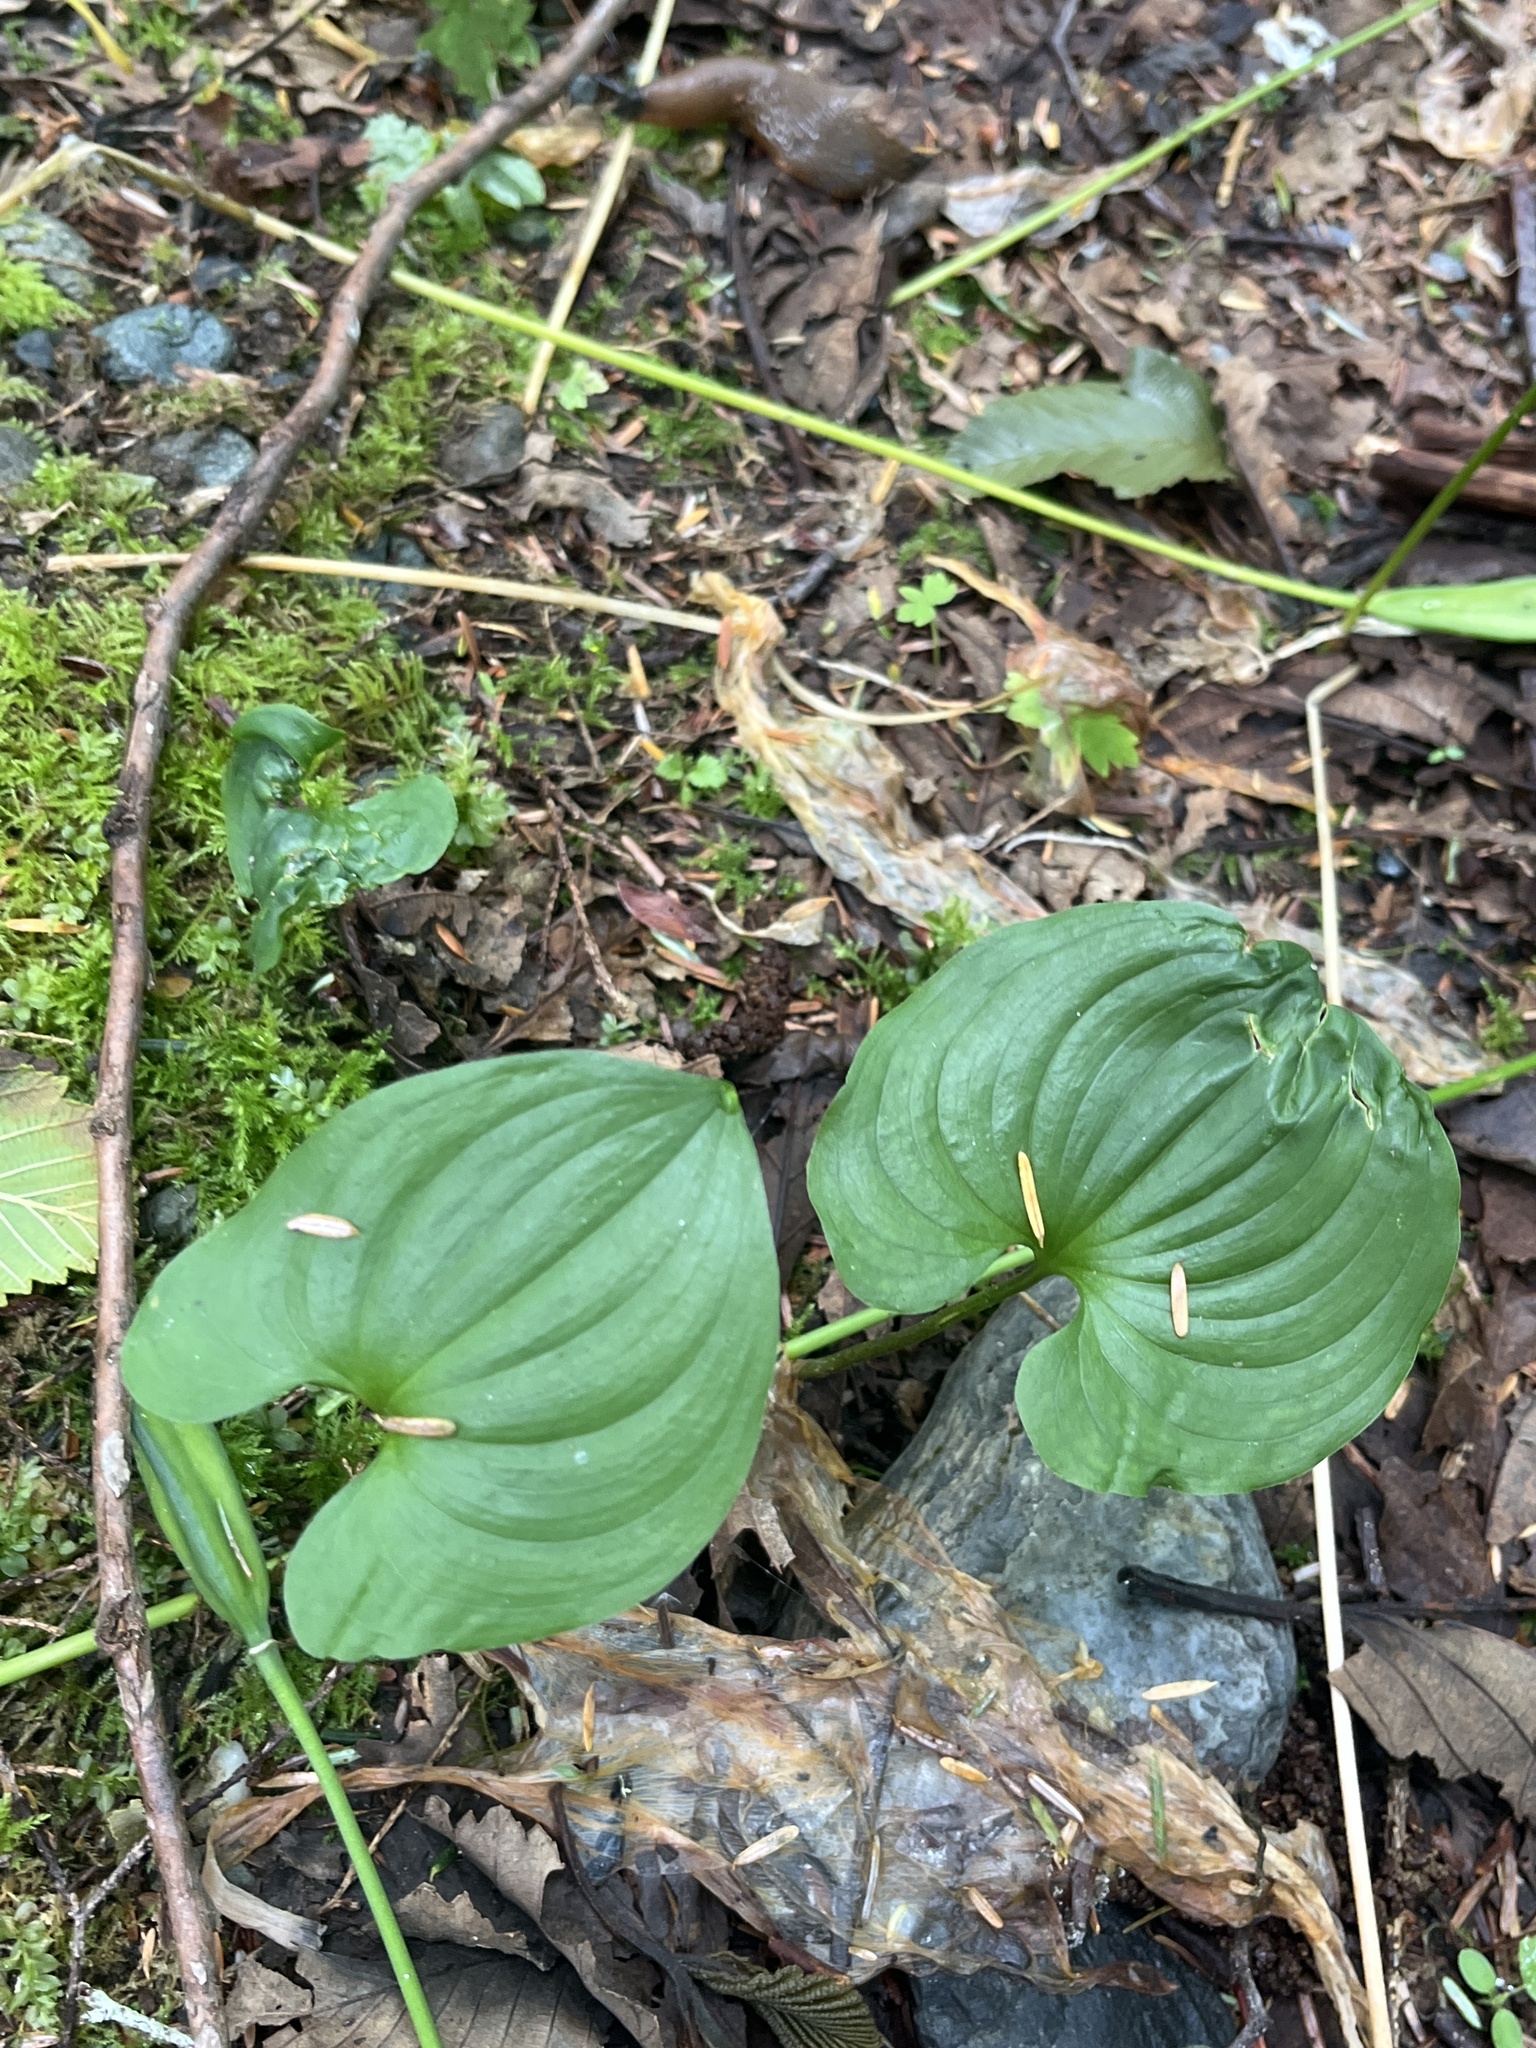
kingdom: Plantae
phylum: Tracheophyta
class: Liliopsida
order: Asparagales
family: Asparagaceae
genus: Maianthemum
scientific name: Maianthemum dilatatum
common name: False lily-of-the-valley
